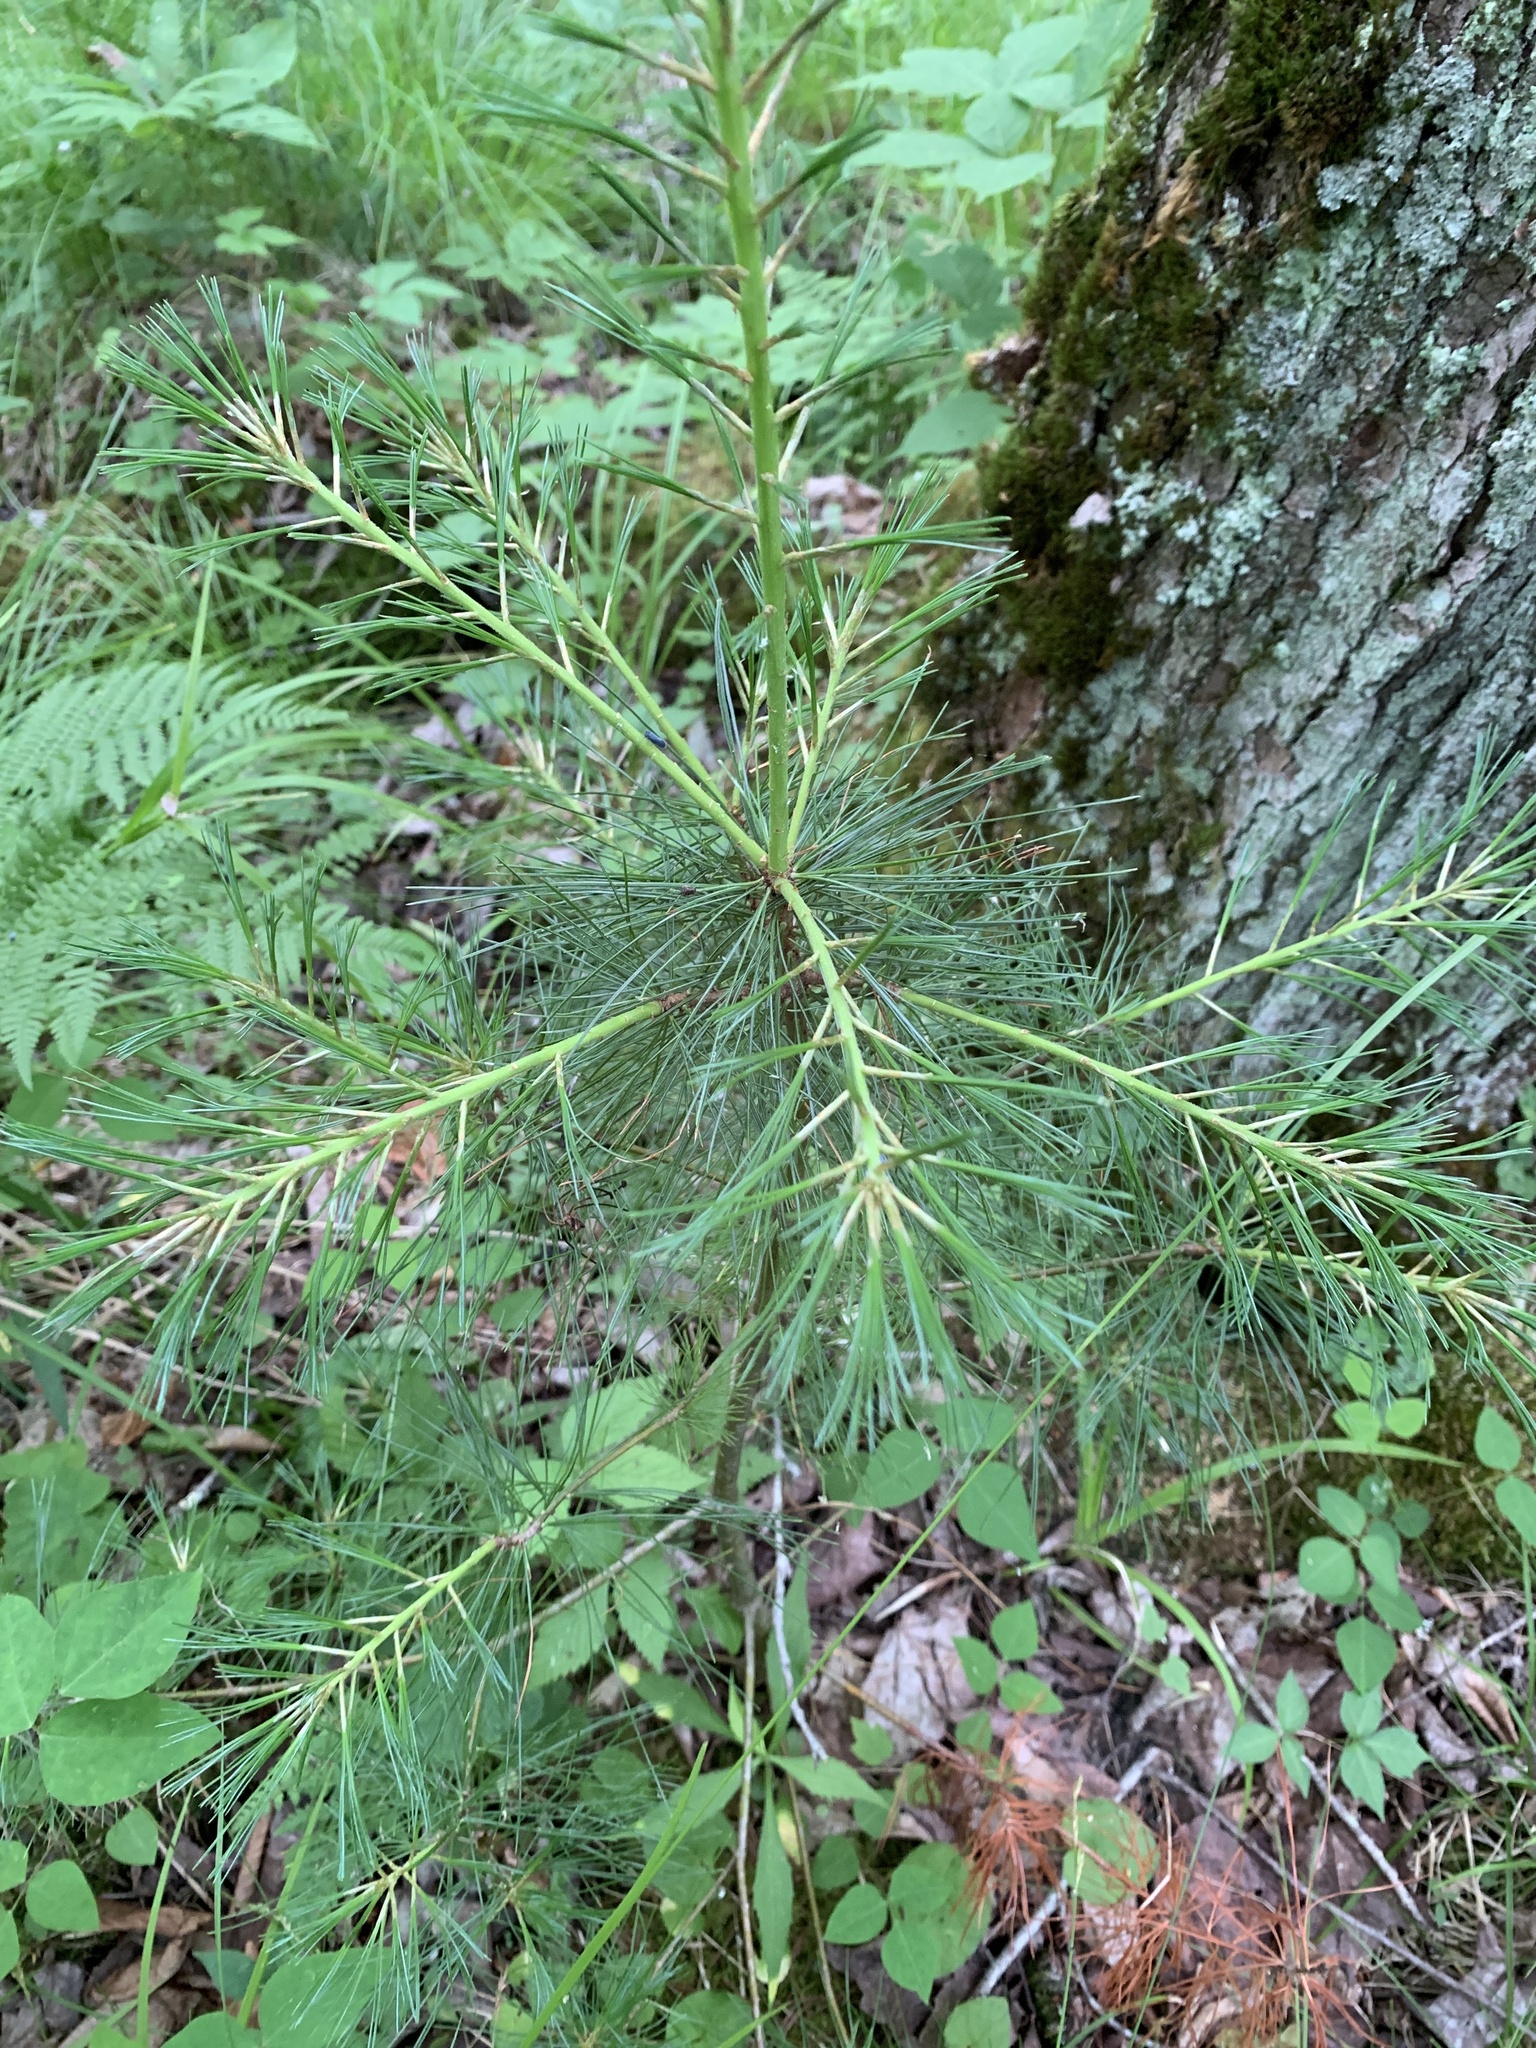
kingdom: Plantae
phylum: Tracheophyta
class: Pinopsida
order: Pinales
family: Pinaceae
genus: Pinus
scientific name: Pinus strobus
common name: Weymouth pine
